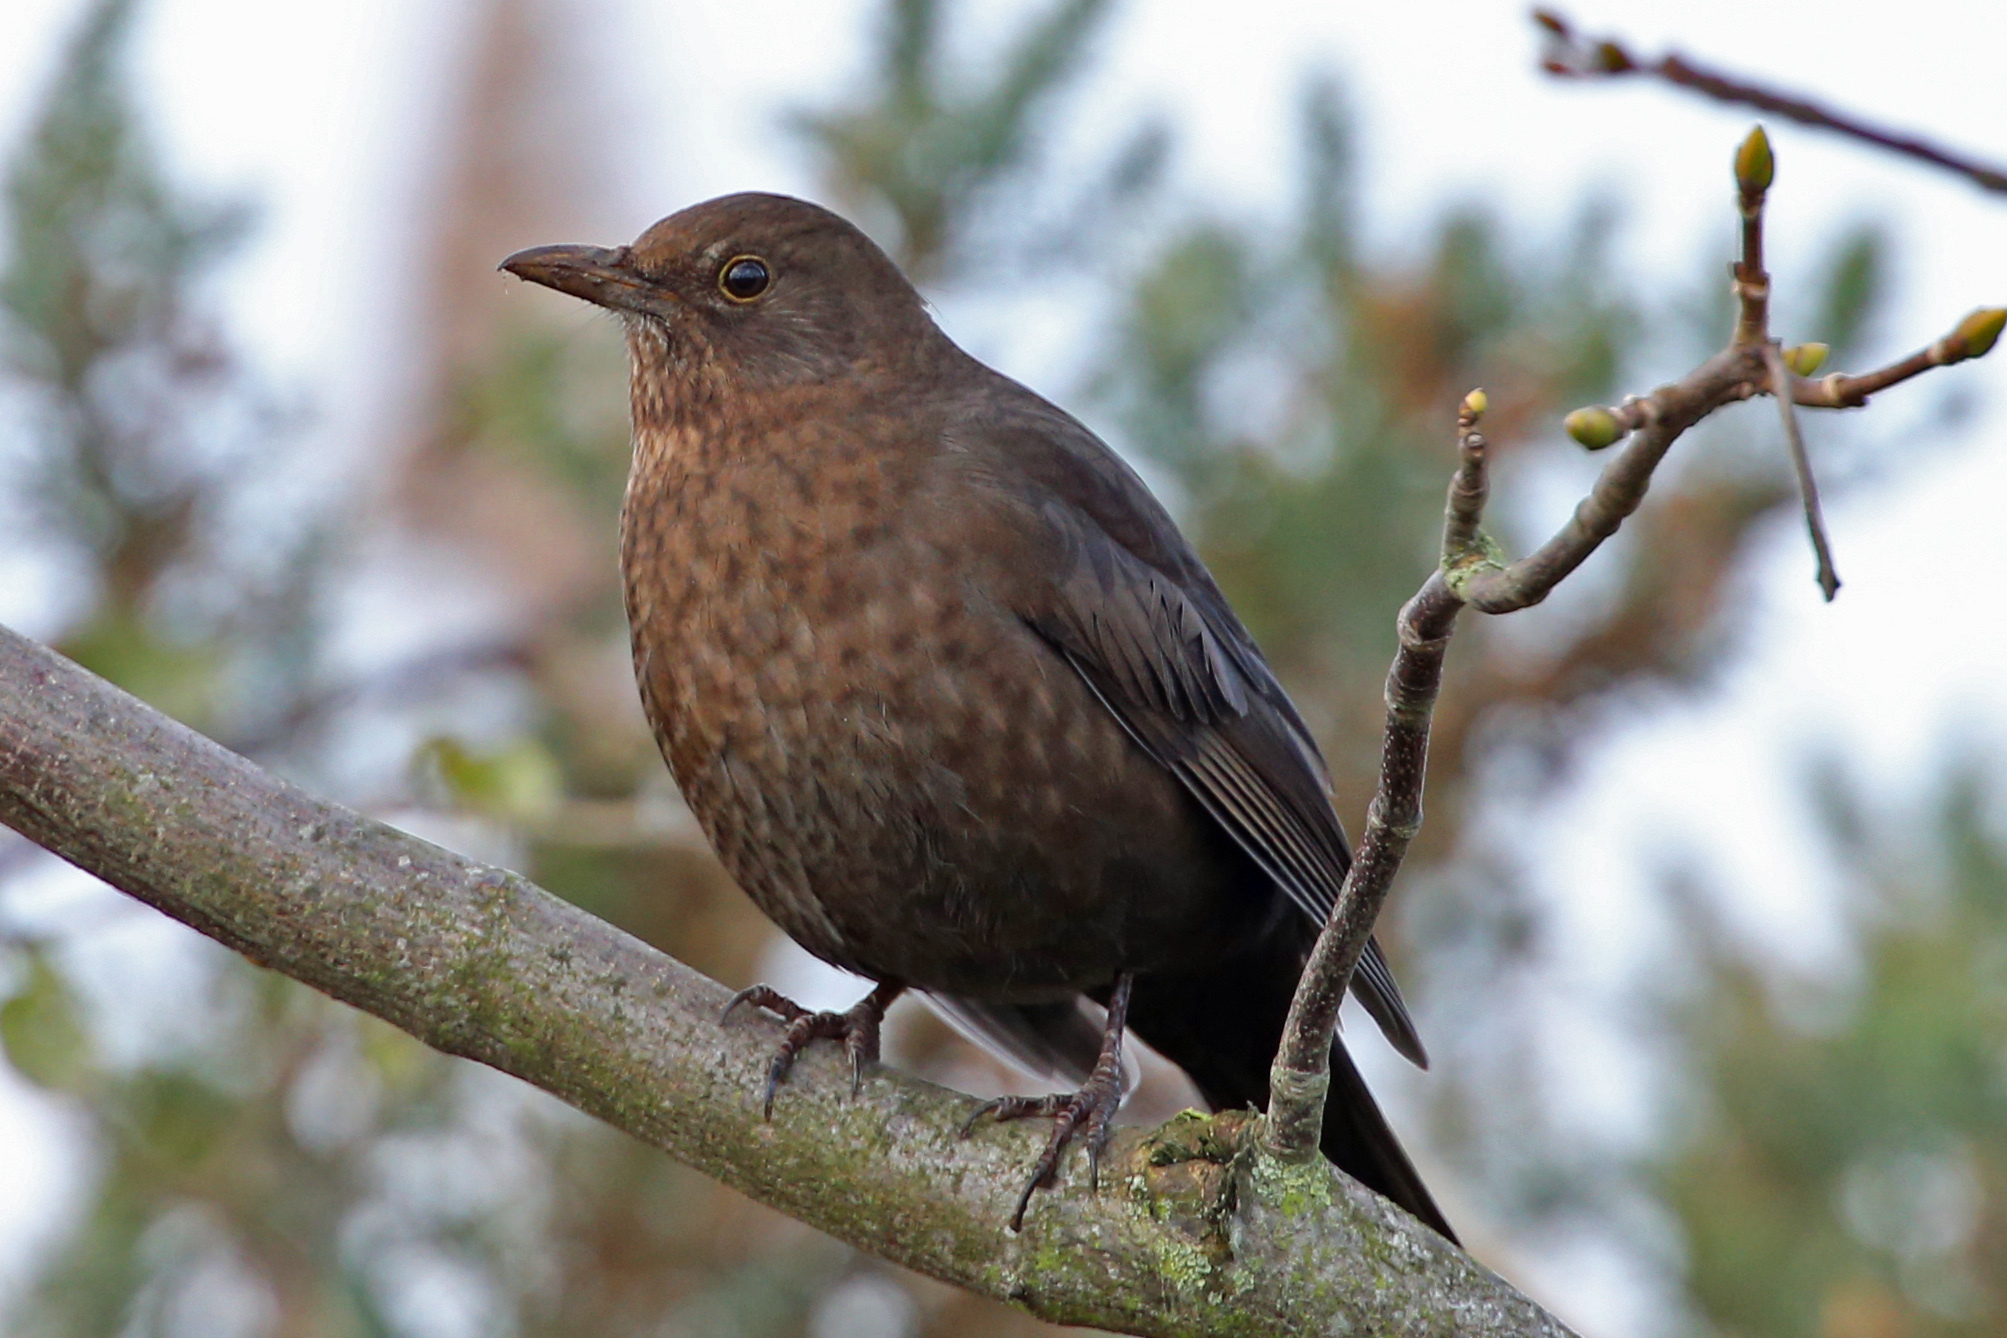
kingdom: Animalia
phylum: Chordata
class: Aves
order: Passeriformes
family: Turdidae
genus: Turdus
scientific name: Turdus merula
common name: Common blackbird
